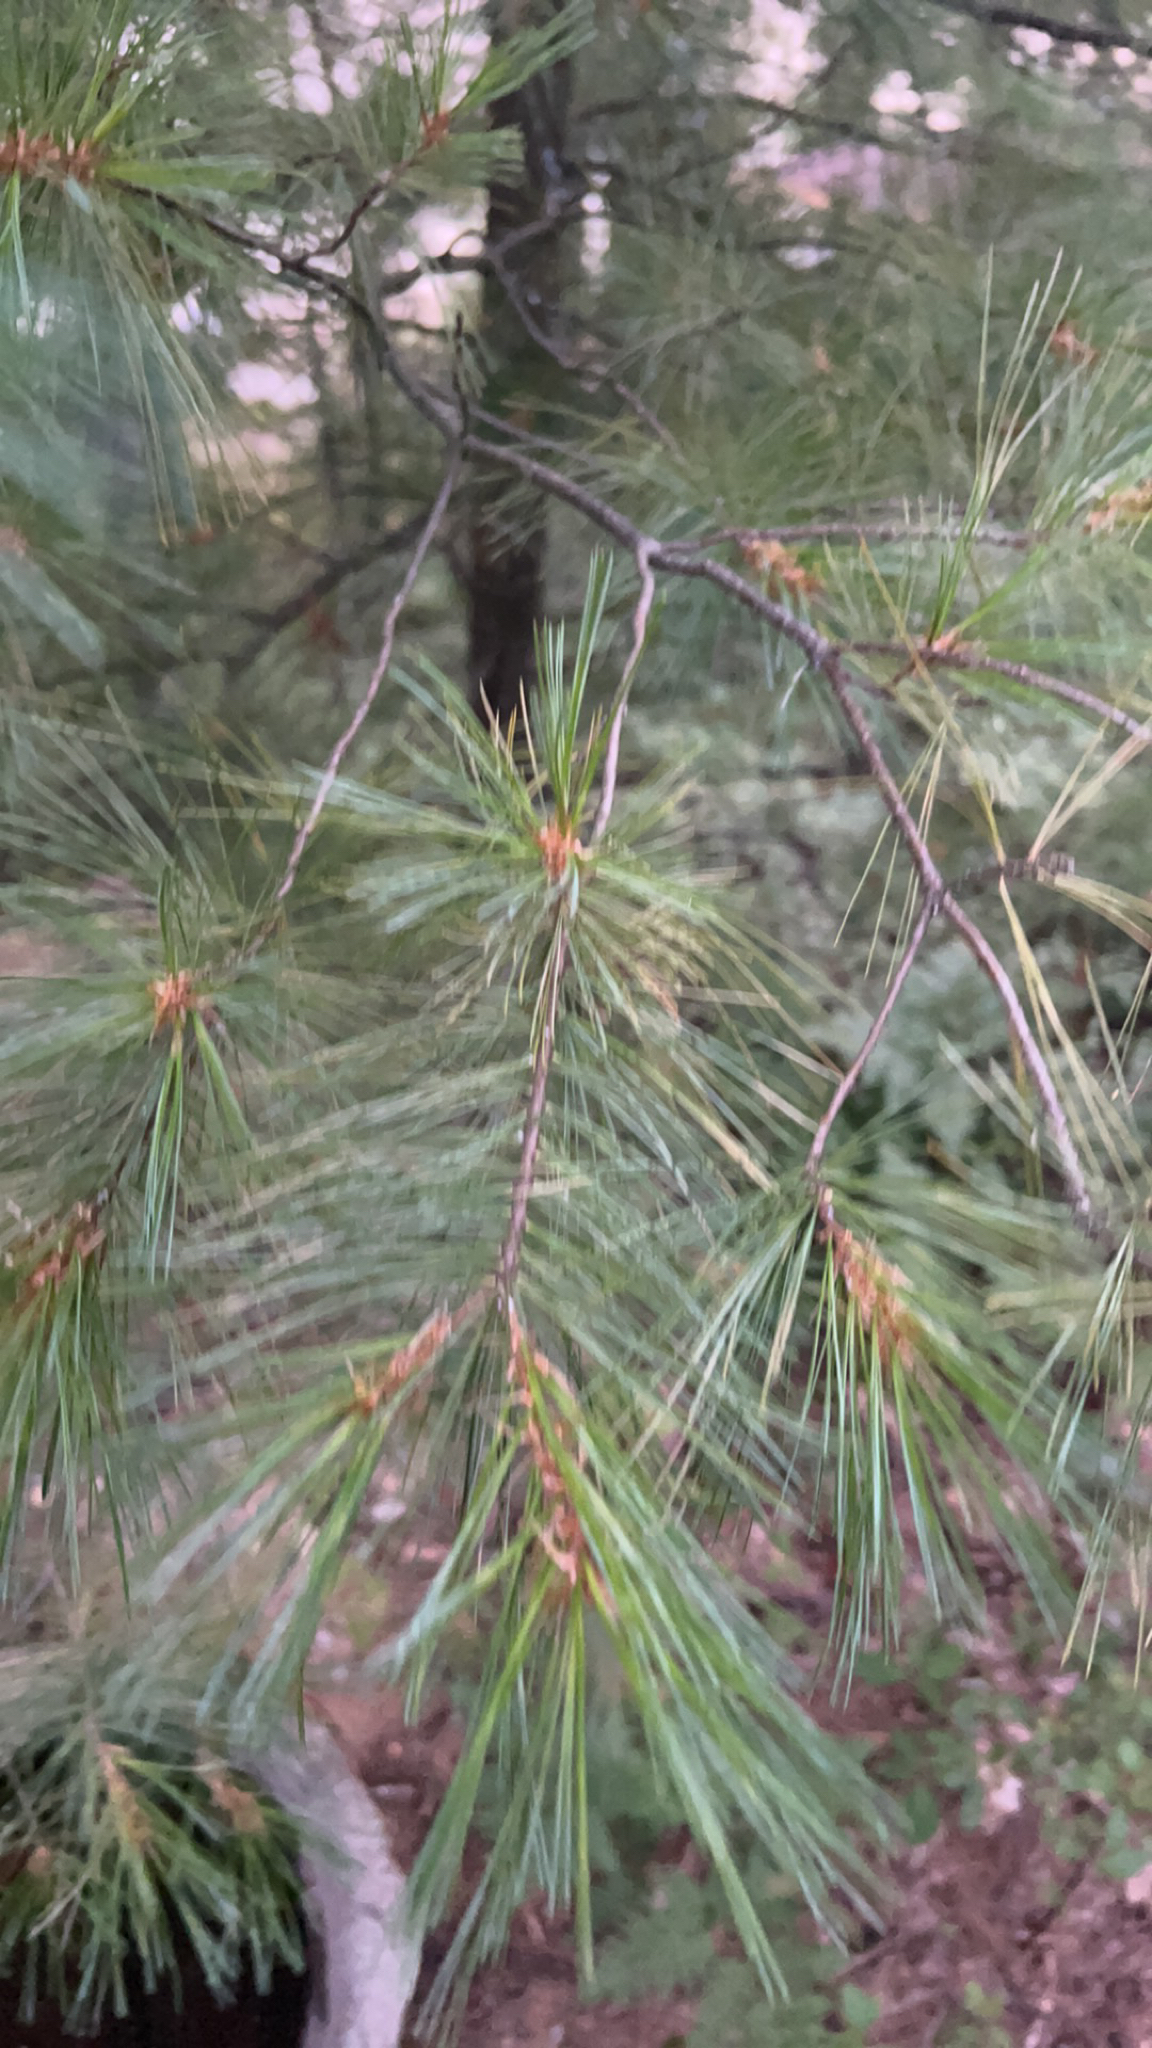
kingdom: Plantae
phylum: Tracheophyta
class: Pinopsida
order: Pinales
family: Pinaceae
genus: Pinus
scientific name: Pinus strobus
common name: Weymouth pine
